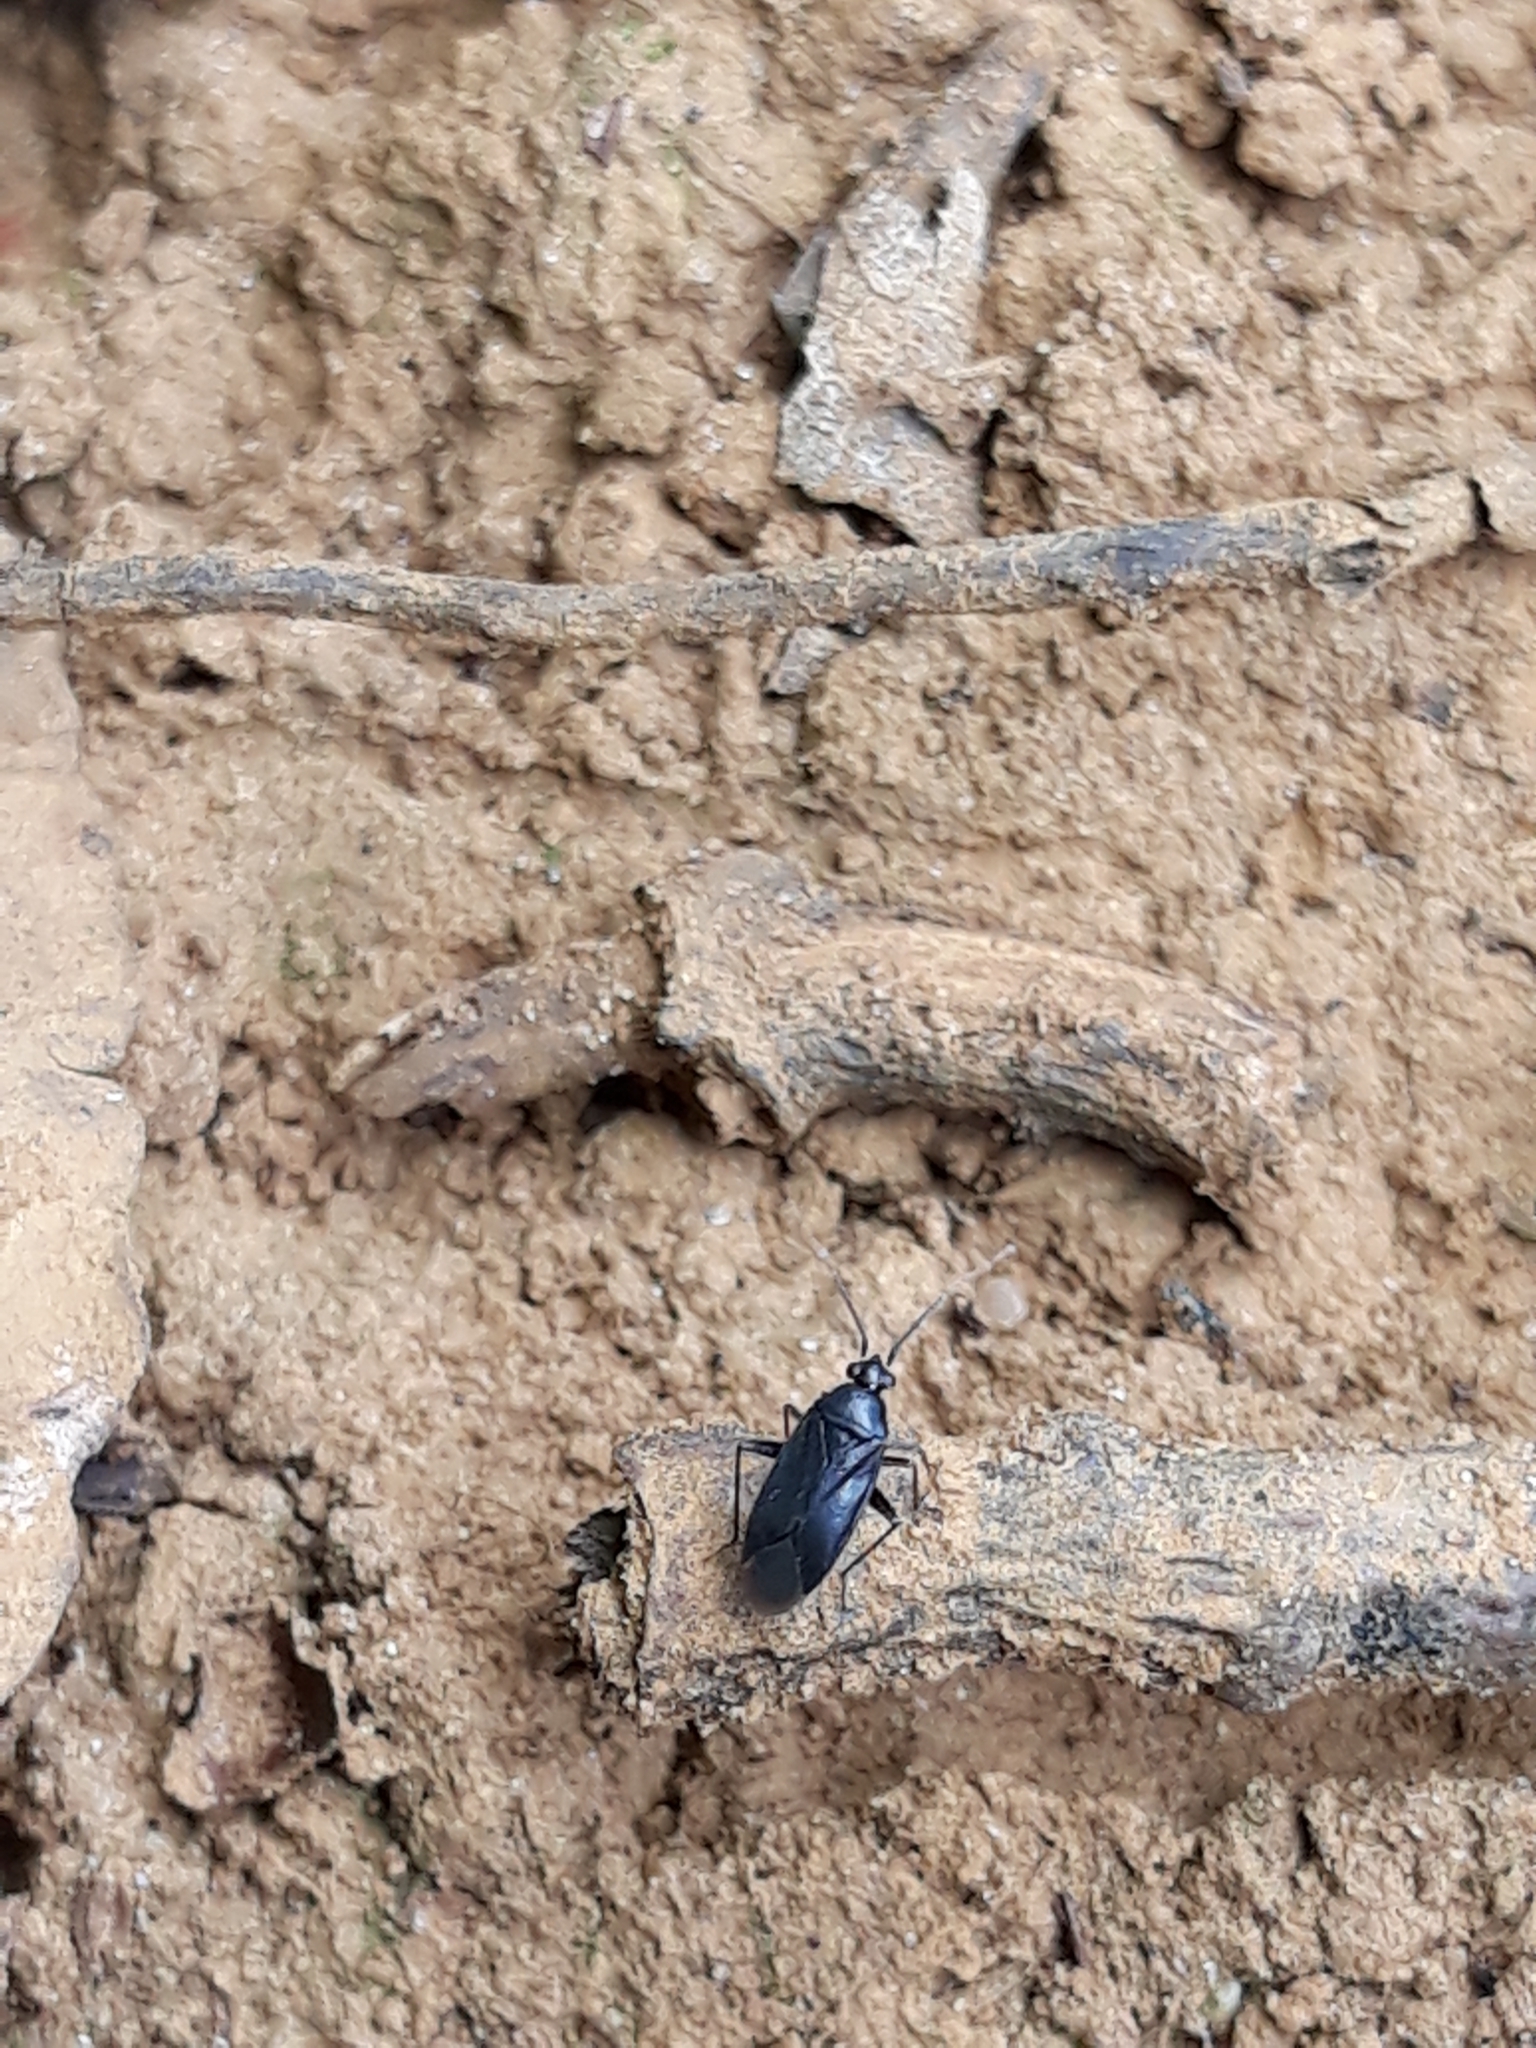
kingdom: Animalia
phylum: Arthropoda
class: Insecta
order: Hemiptera
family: Miridae
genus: Plagiognathus
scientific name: Plagiognathus arbustorum
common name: Plant bug
